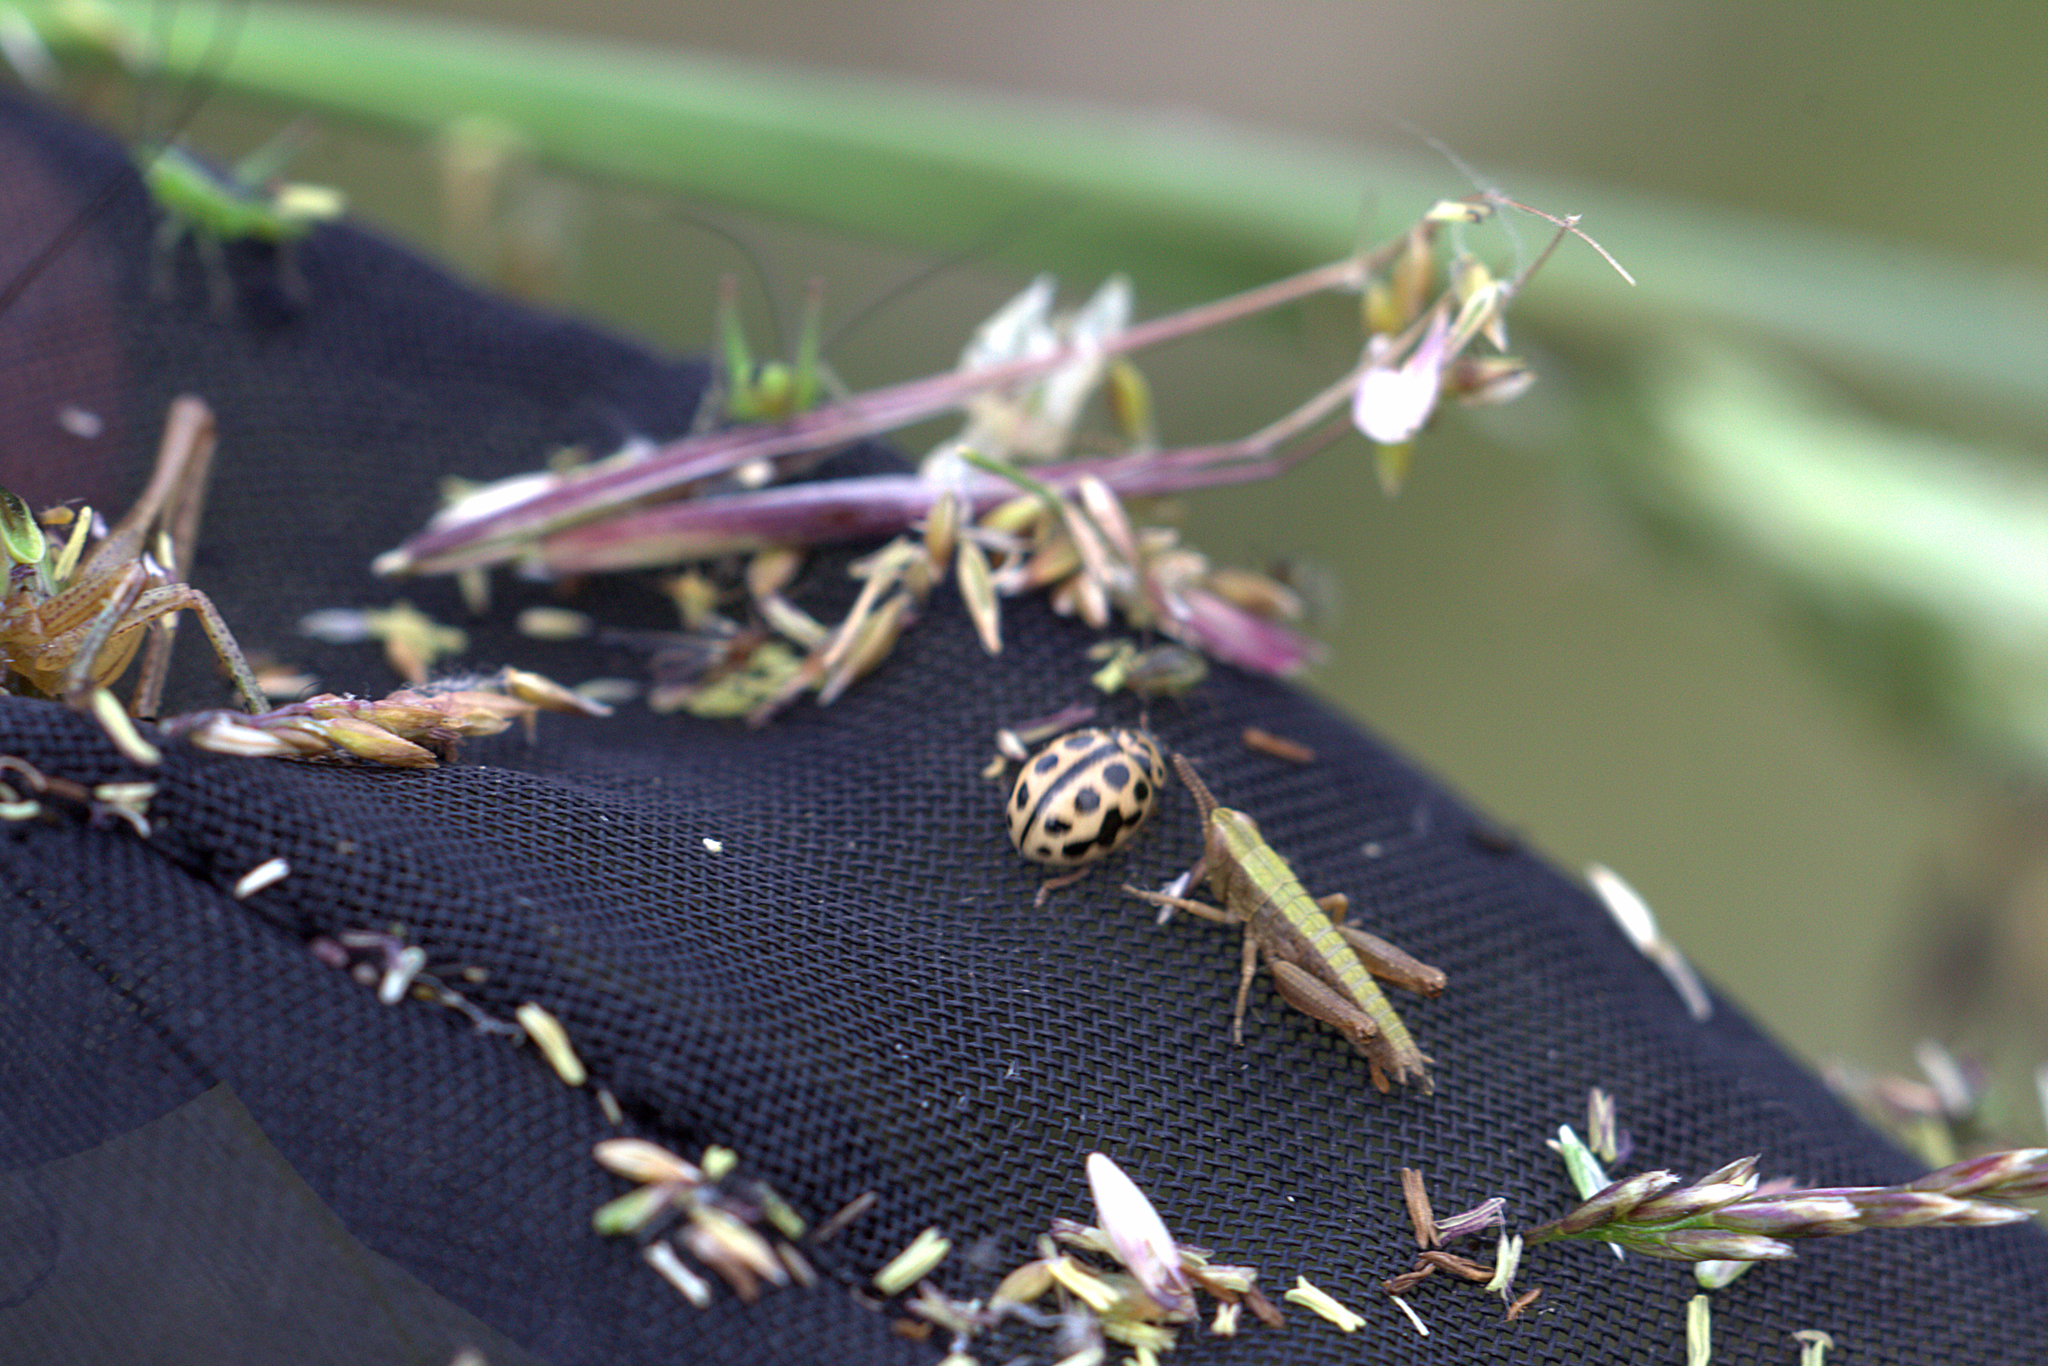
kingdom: Animalia
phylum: Arthropoda
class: Insecta
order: Coleoptera
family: Coccinellidae
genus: Tytthaspis
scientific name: Tytthaspis sedecimpunctata
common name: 16-spot ladybird
